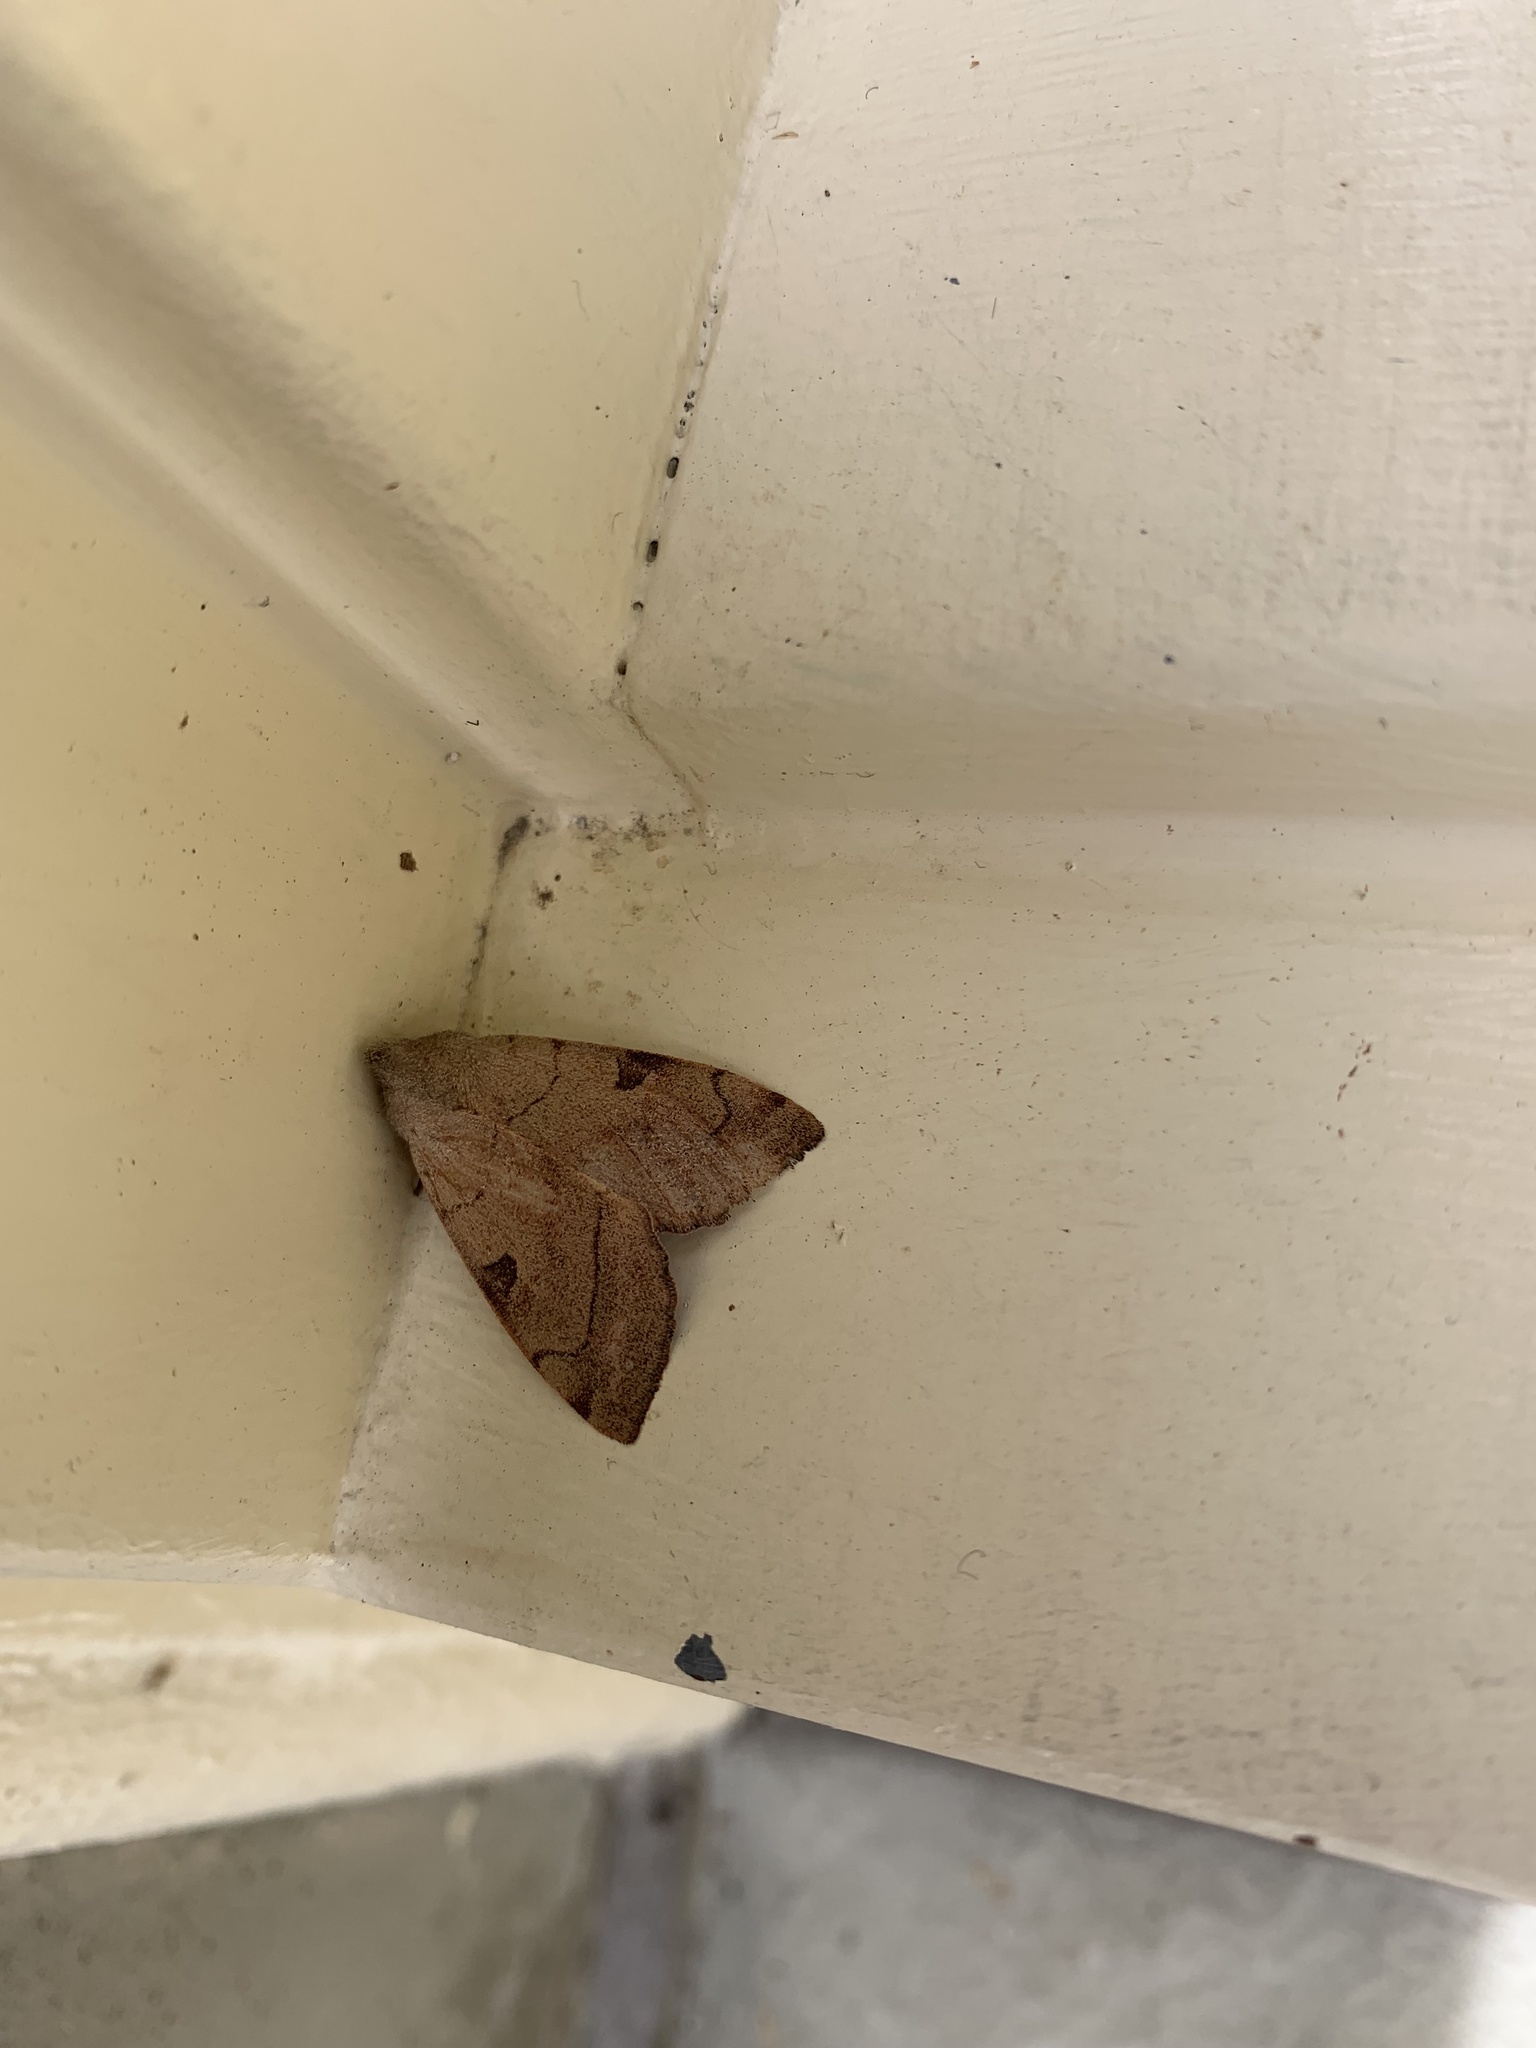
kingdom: Animalia
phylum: Arthropoda
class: Insecta
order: Lepidoptera
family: Noctuidae
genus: Choephora
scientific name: Choephora fungorum
